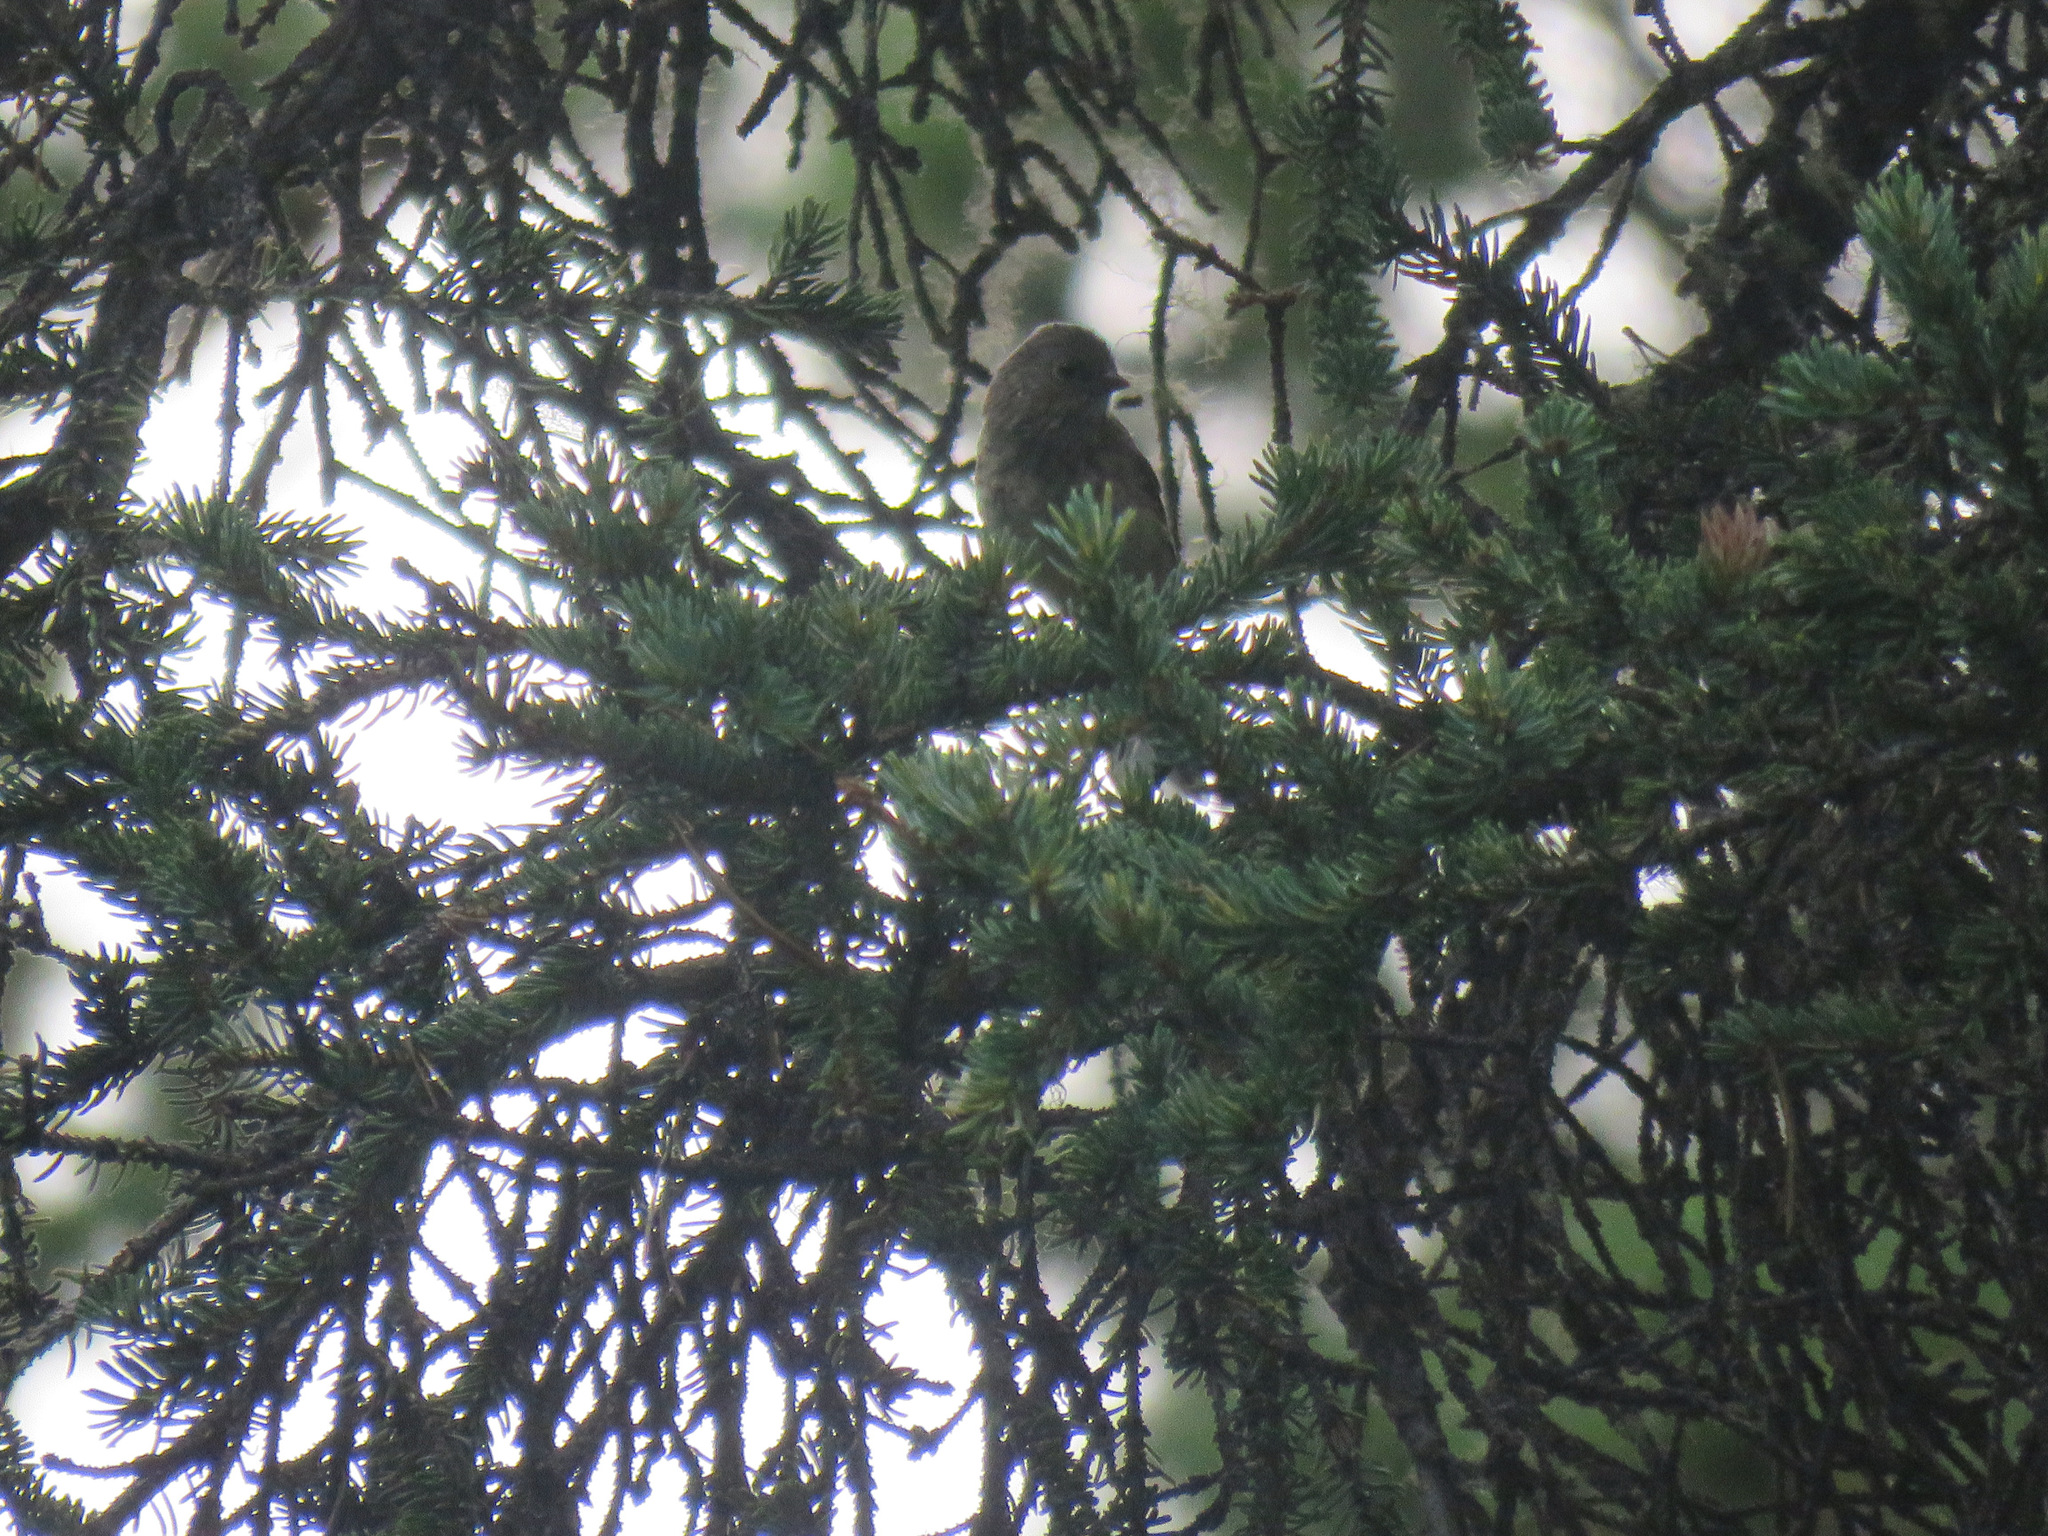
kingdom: Animalia
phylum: Chordata
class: Aves
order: Passeriformes
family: Passerellidae
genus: Junco
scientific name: Junco hyemalis
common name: Dark-eyed junco
